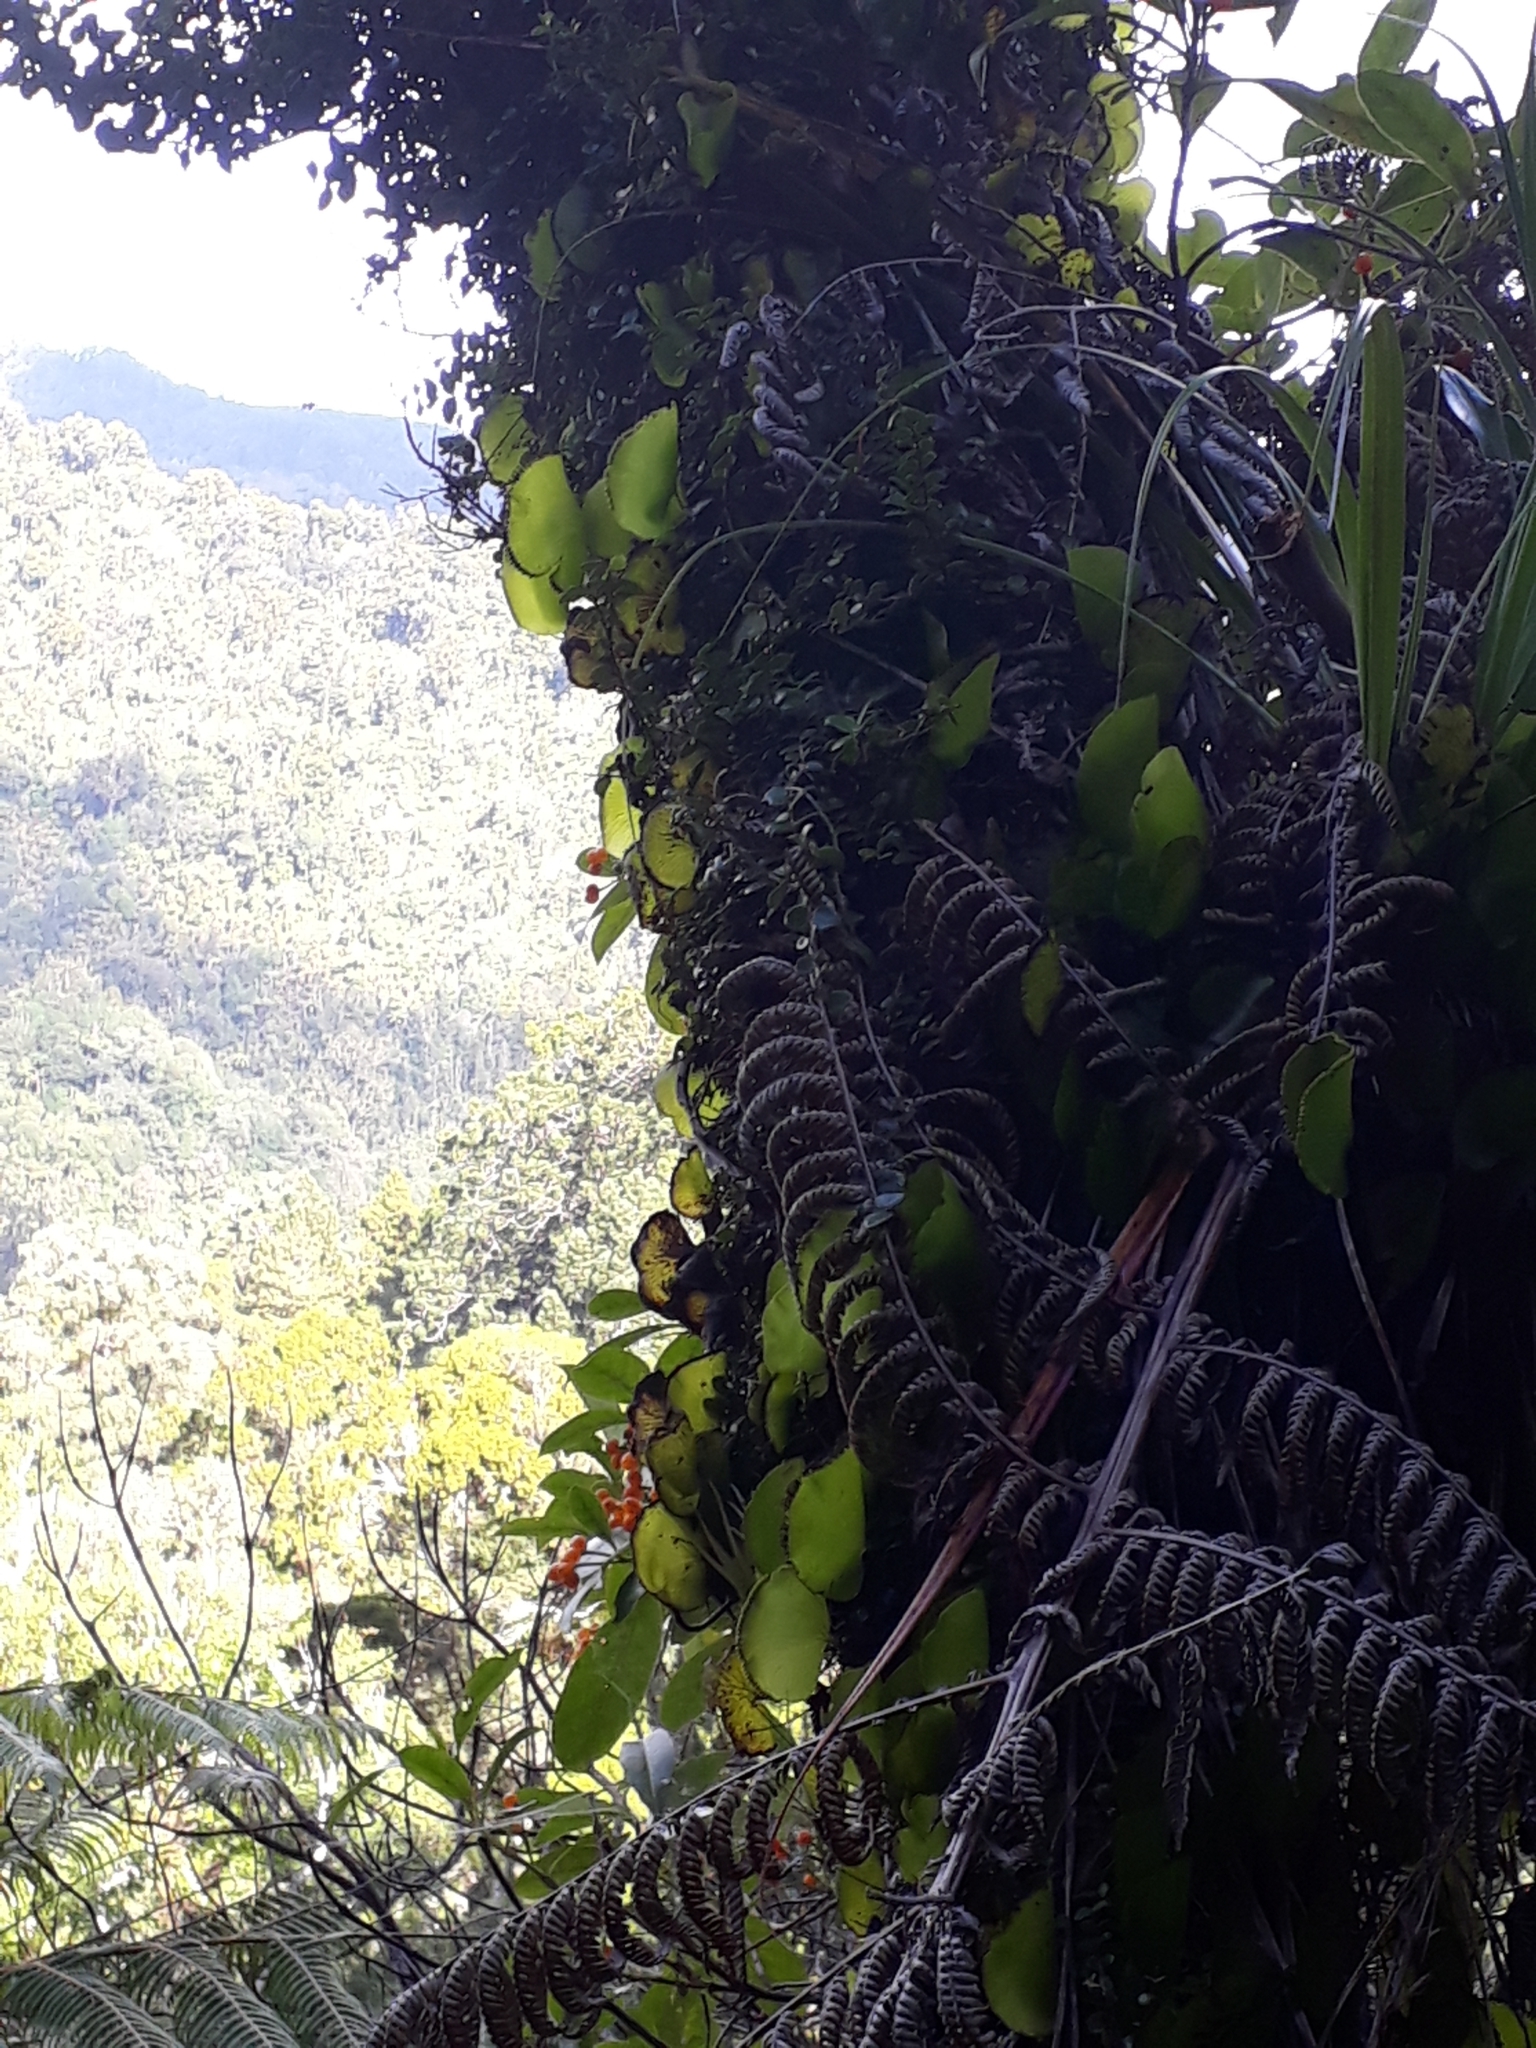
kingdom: Plantae
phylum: Tracheophyta
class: Polypodiopsida
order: Hymenophyllales
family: Hymenophyllaceae
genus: Hymenophyllum
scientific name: Hymenophyllum nephrophyllum
